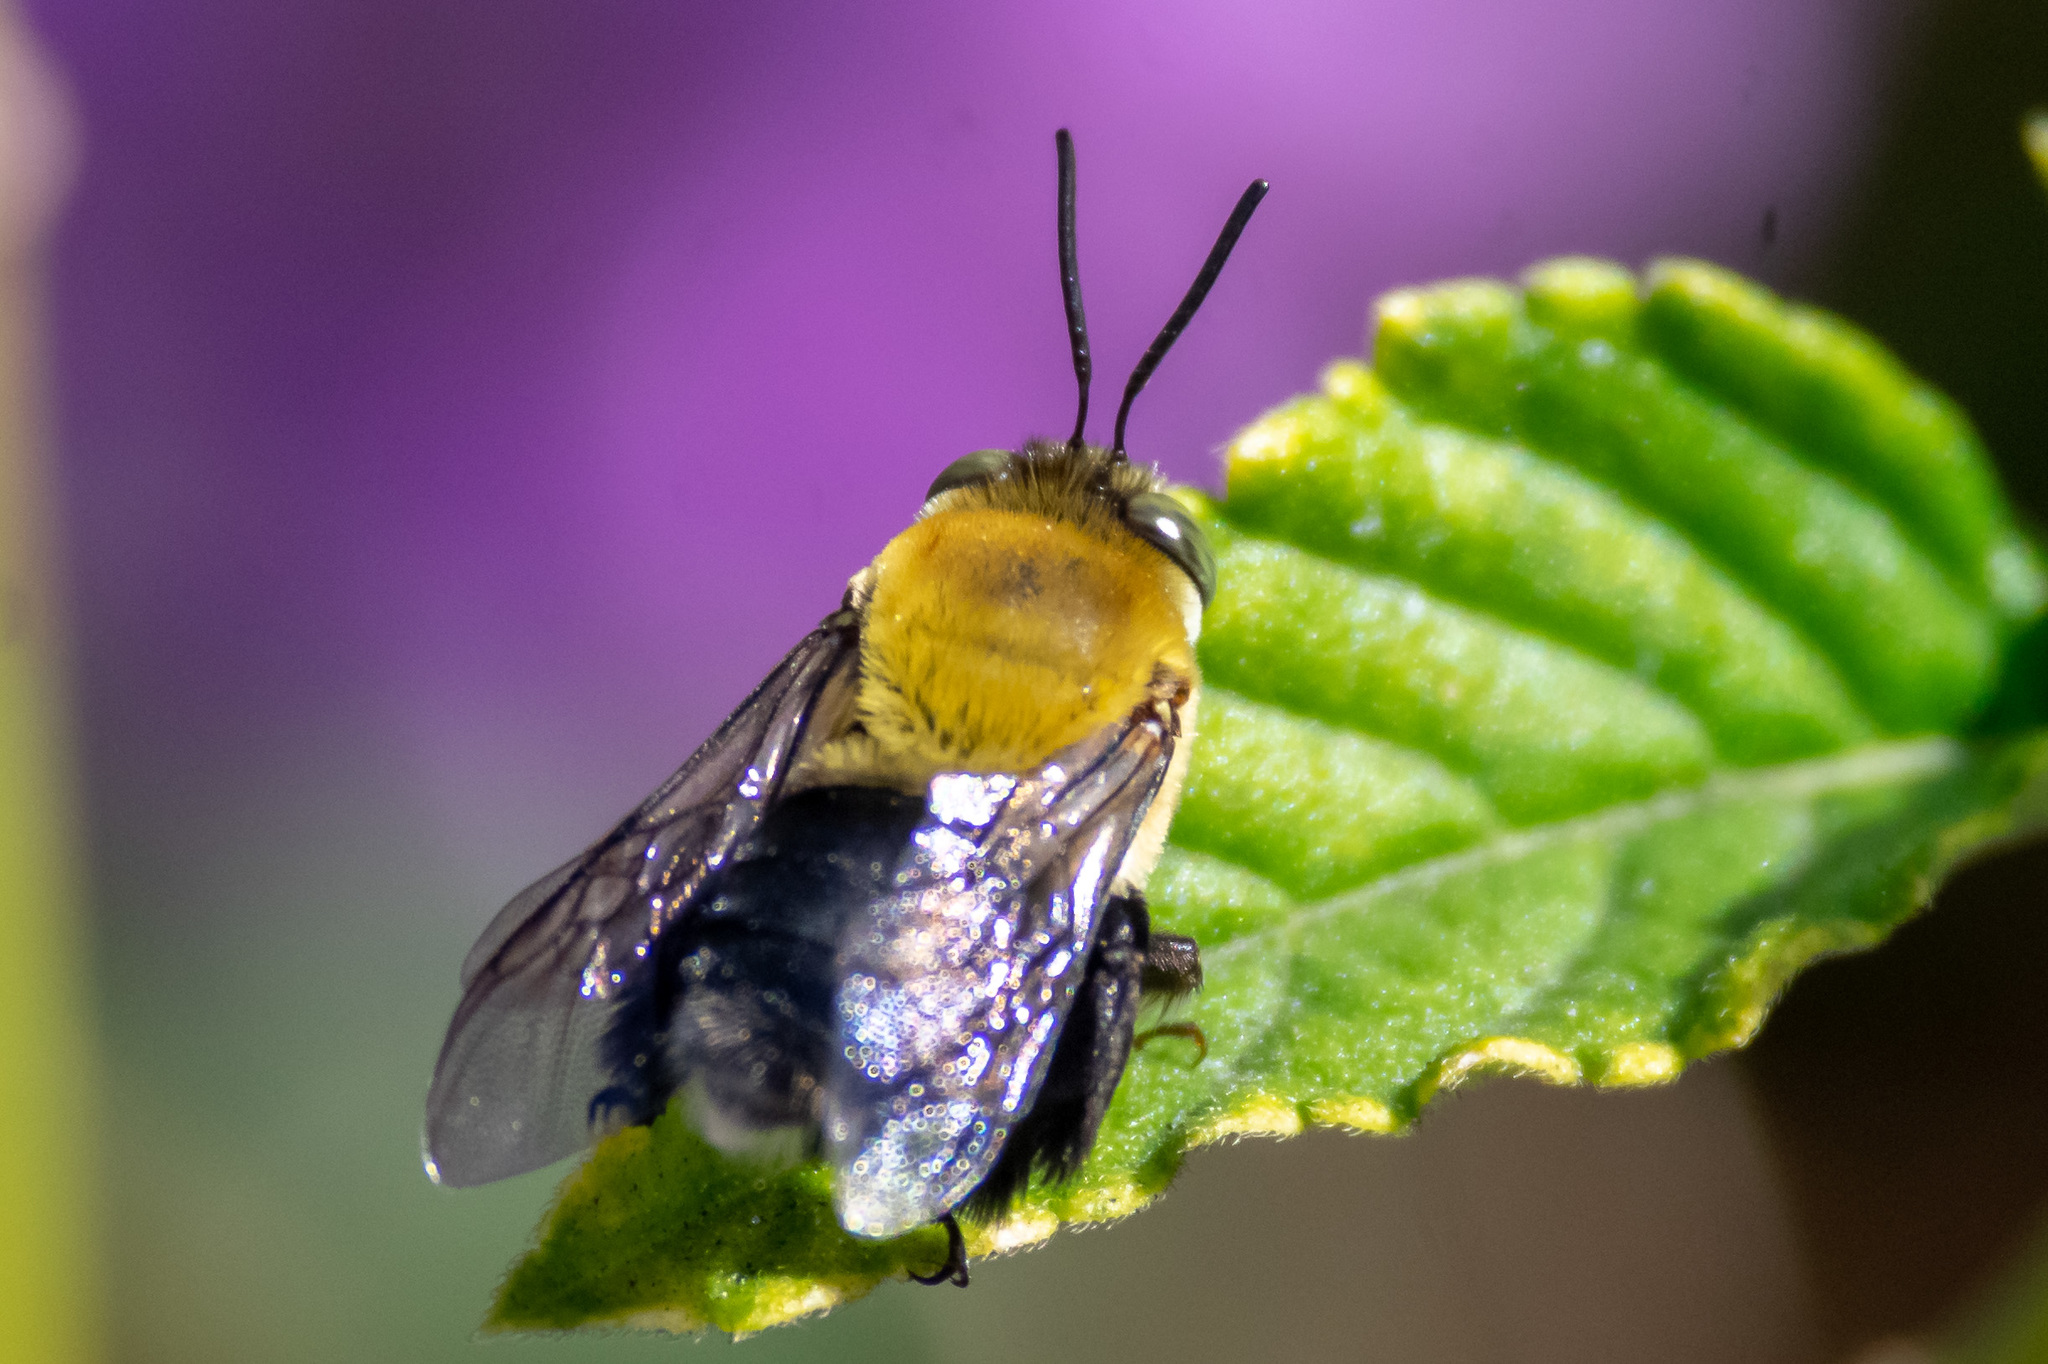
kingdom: Animalia
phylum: Arthropoda
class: Insecta
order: Hymenoptera
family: Apidae
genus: Centris
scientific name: Centris nitida
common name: Oil-collecting bee
